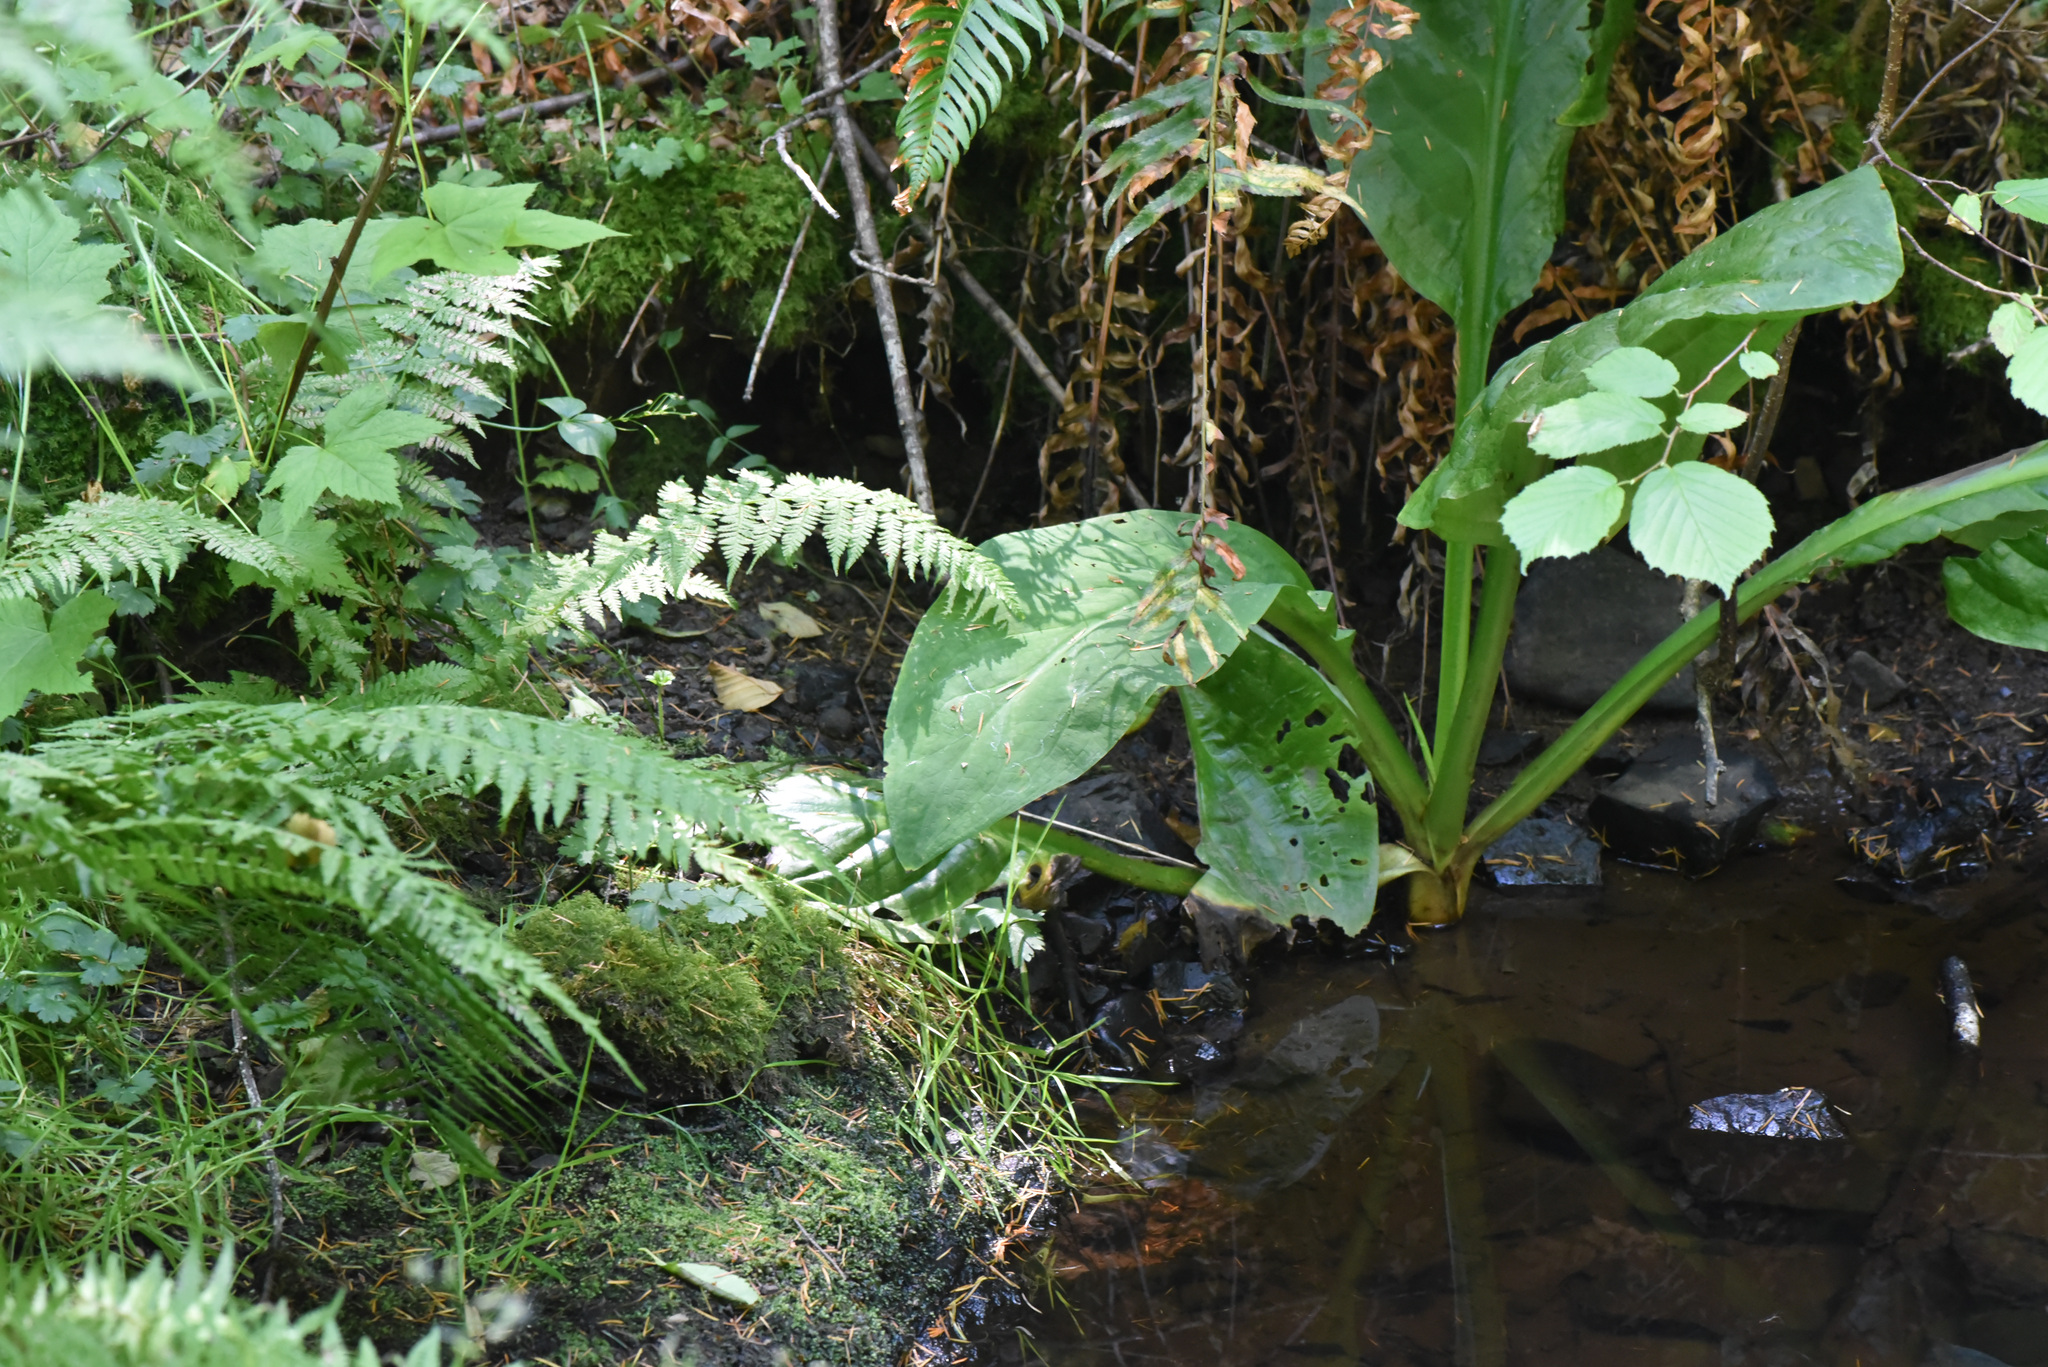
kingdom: Plantae
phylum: Tracheophyta
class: Liliopsida
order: Alismatales
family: Araceae
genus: Lysichiton
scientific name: Lysichiton americanus
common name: American skunk cabbage
